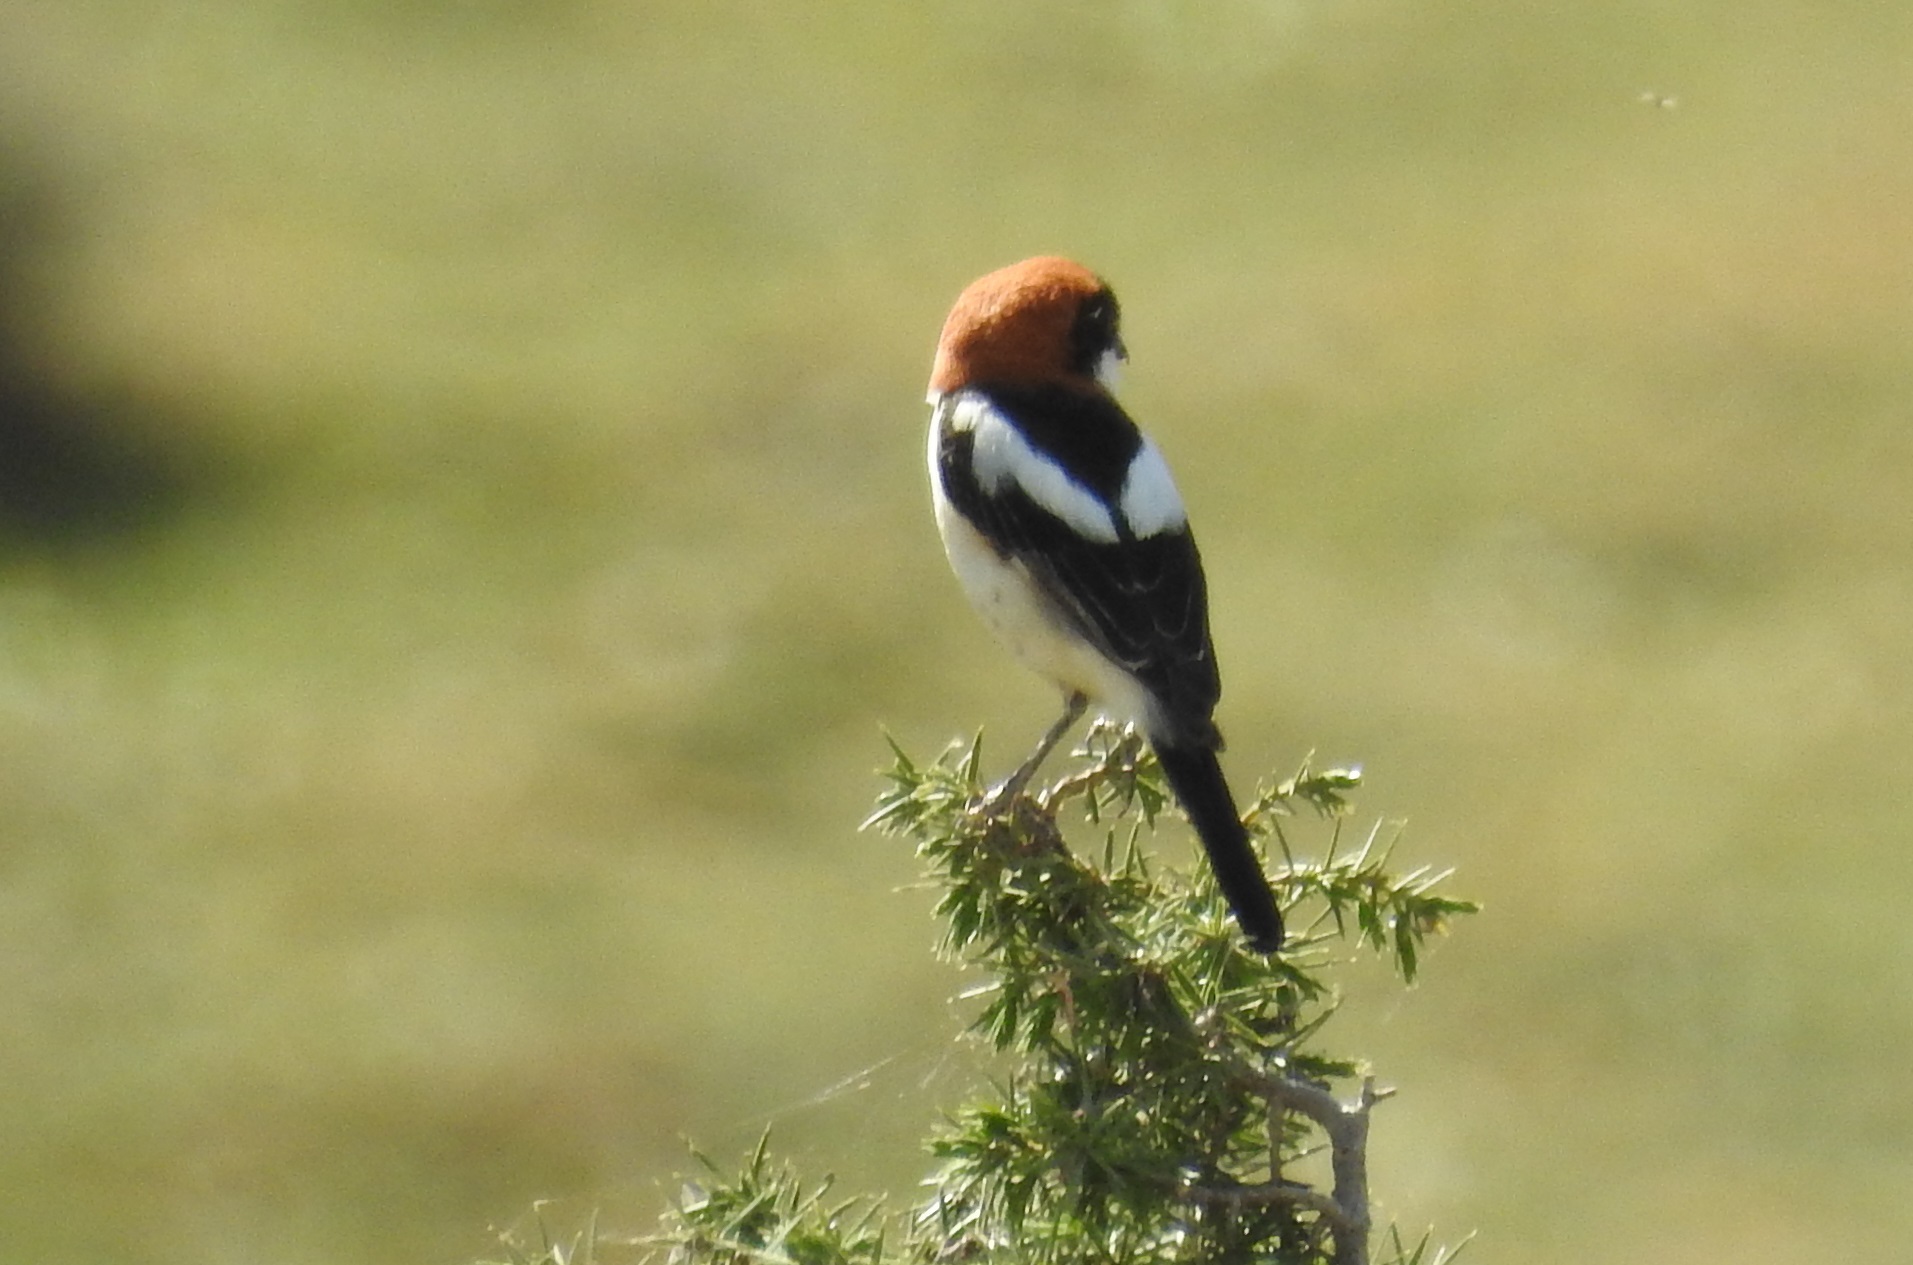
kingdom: Animalia
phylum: Chordata
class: Aves
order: Passeriformes
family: Laniidae
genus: Lanius
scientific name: Lanius senator
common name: Woodchat shrike
